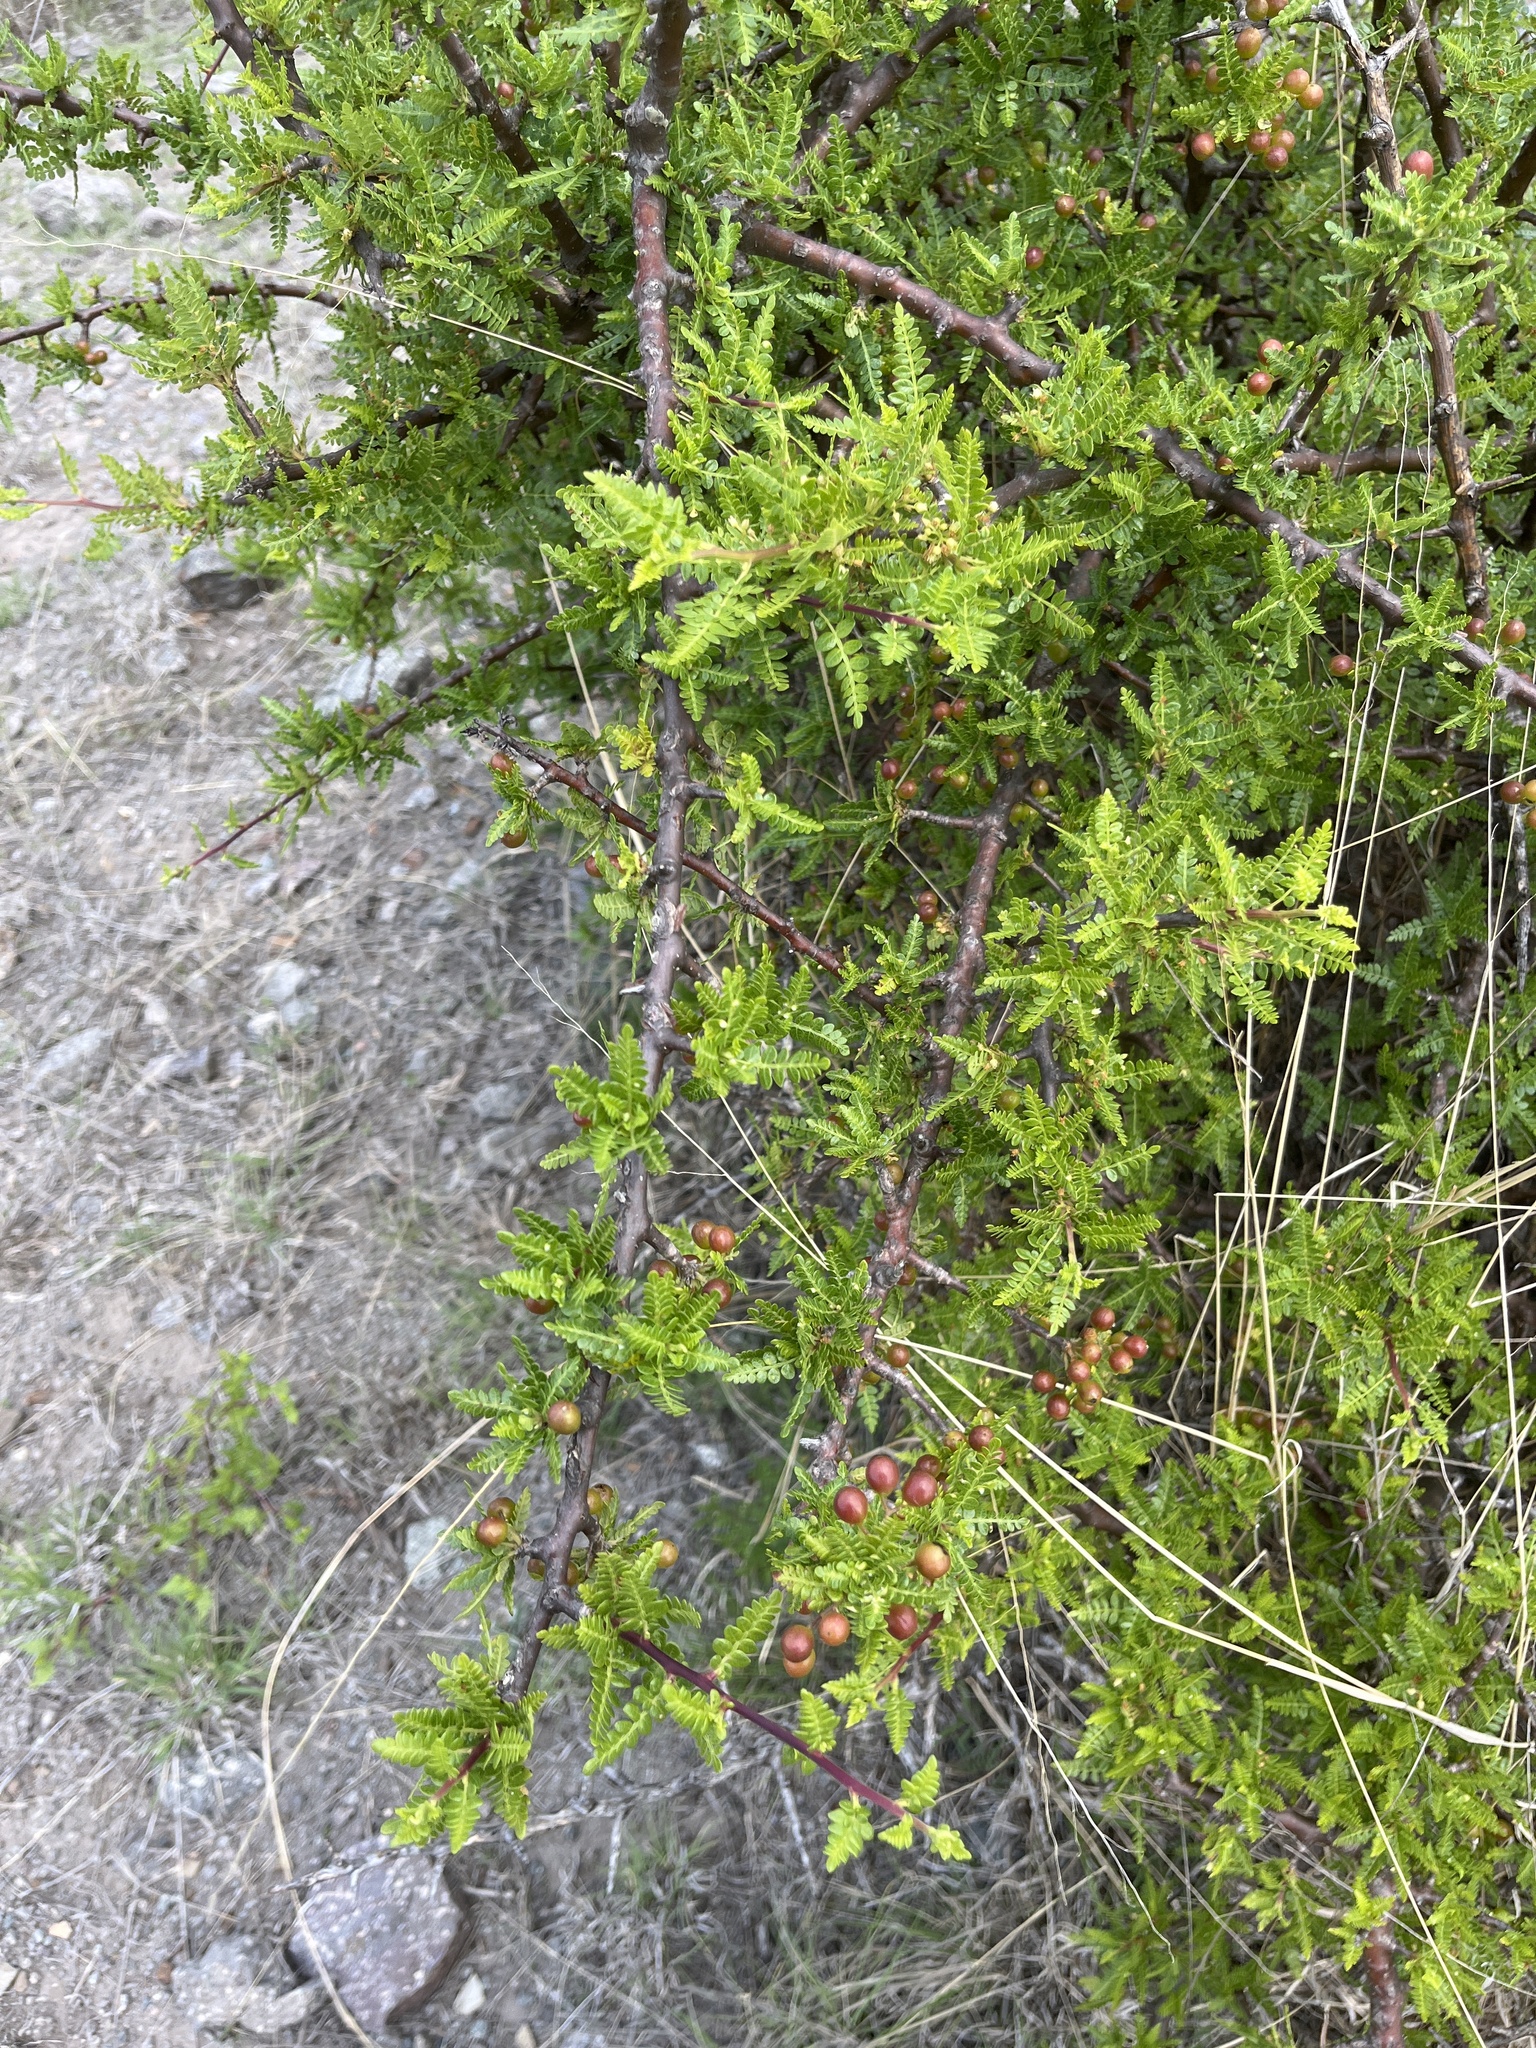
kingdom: Plantae
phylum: Tracheophyta
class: Magnoliopsida
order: Sapindales
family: Burseraceae
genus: Bursera
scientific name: Bursera bipinnata
